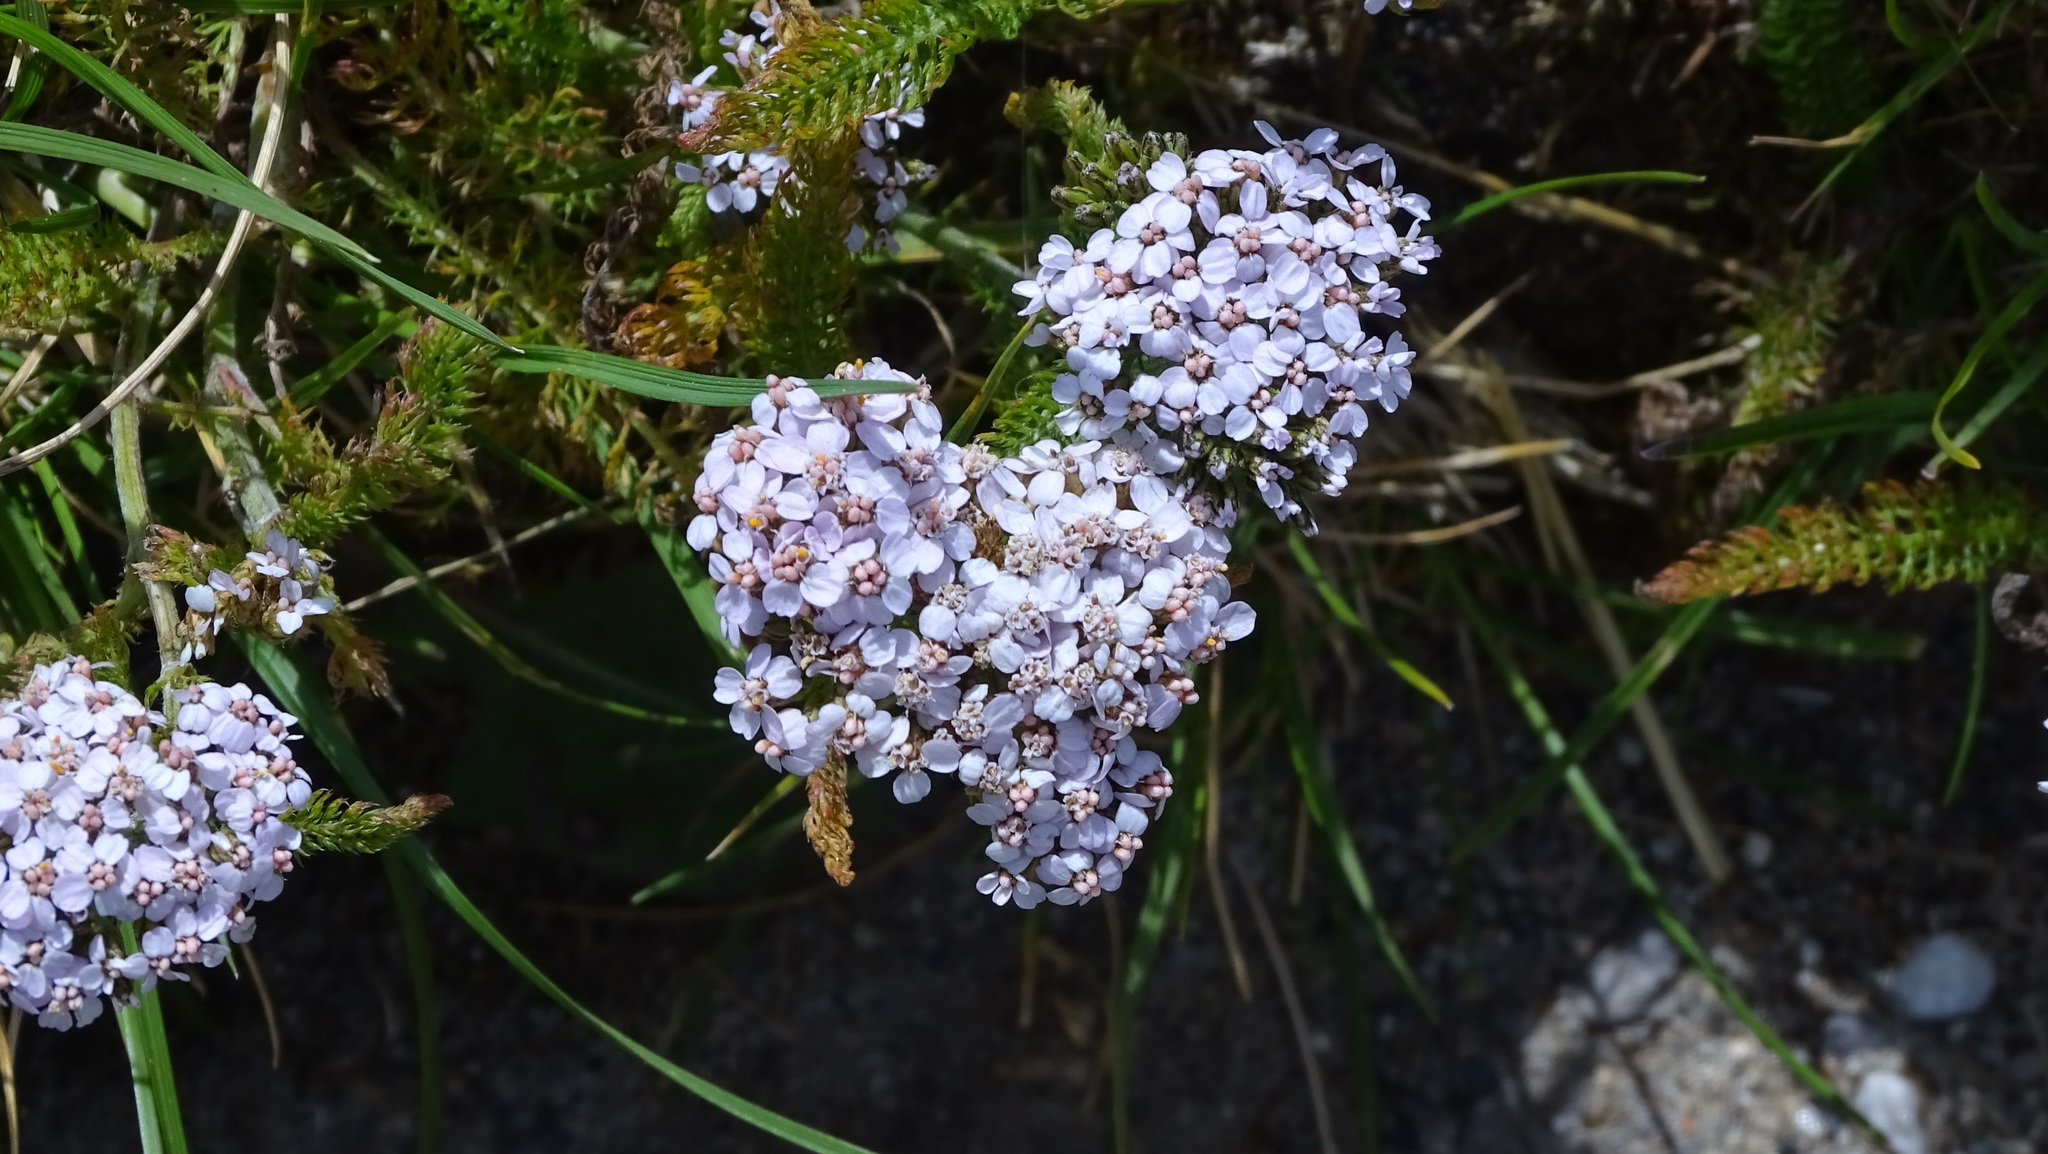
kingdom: Plantae
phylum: Tracheophyta
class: Magnoliopsida
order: Asterales
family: Asteraceae
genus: Achillea
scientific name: Achillea millefolium
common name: Yarrow
